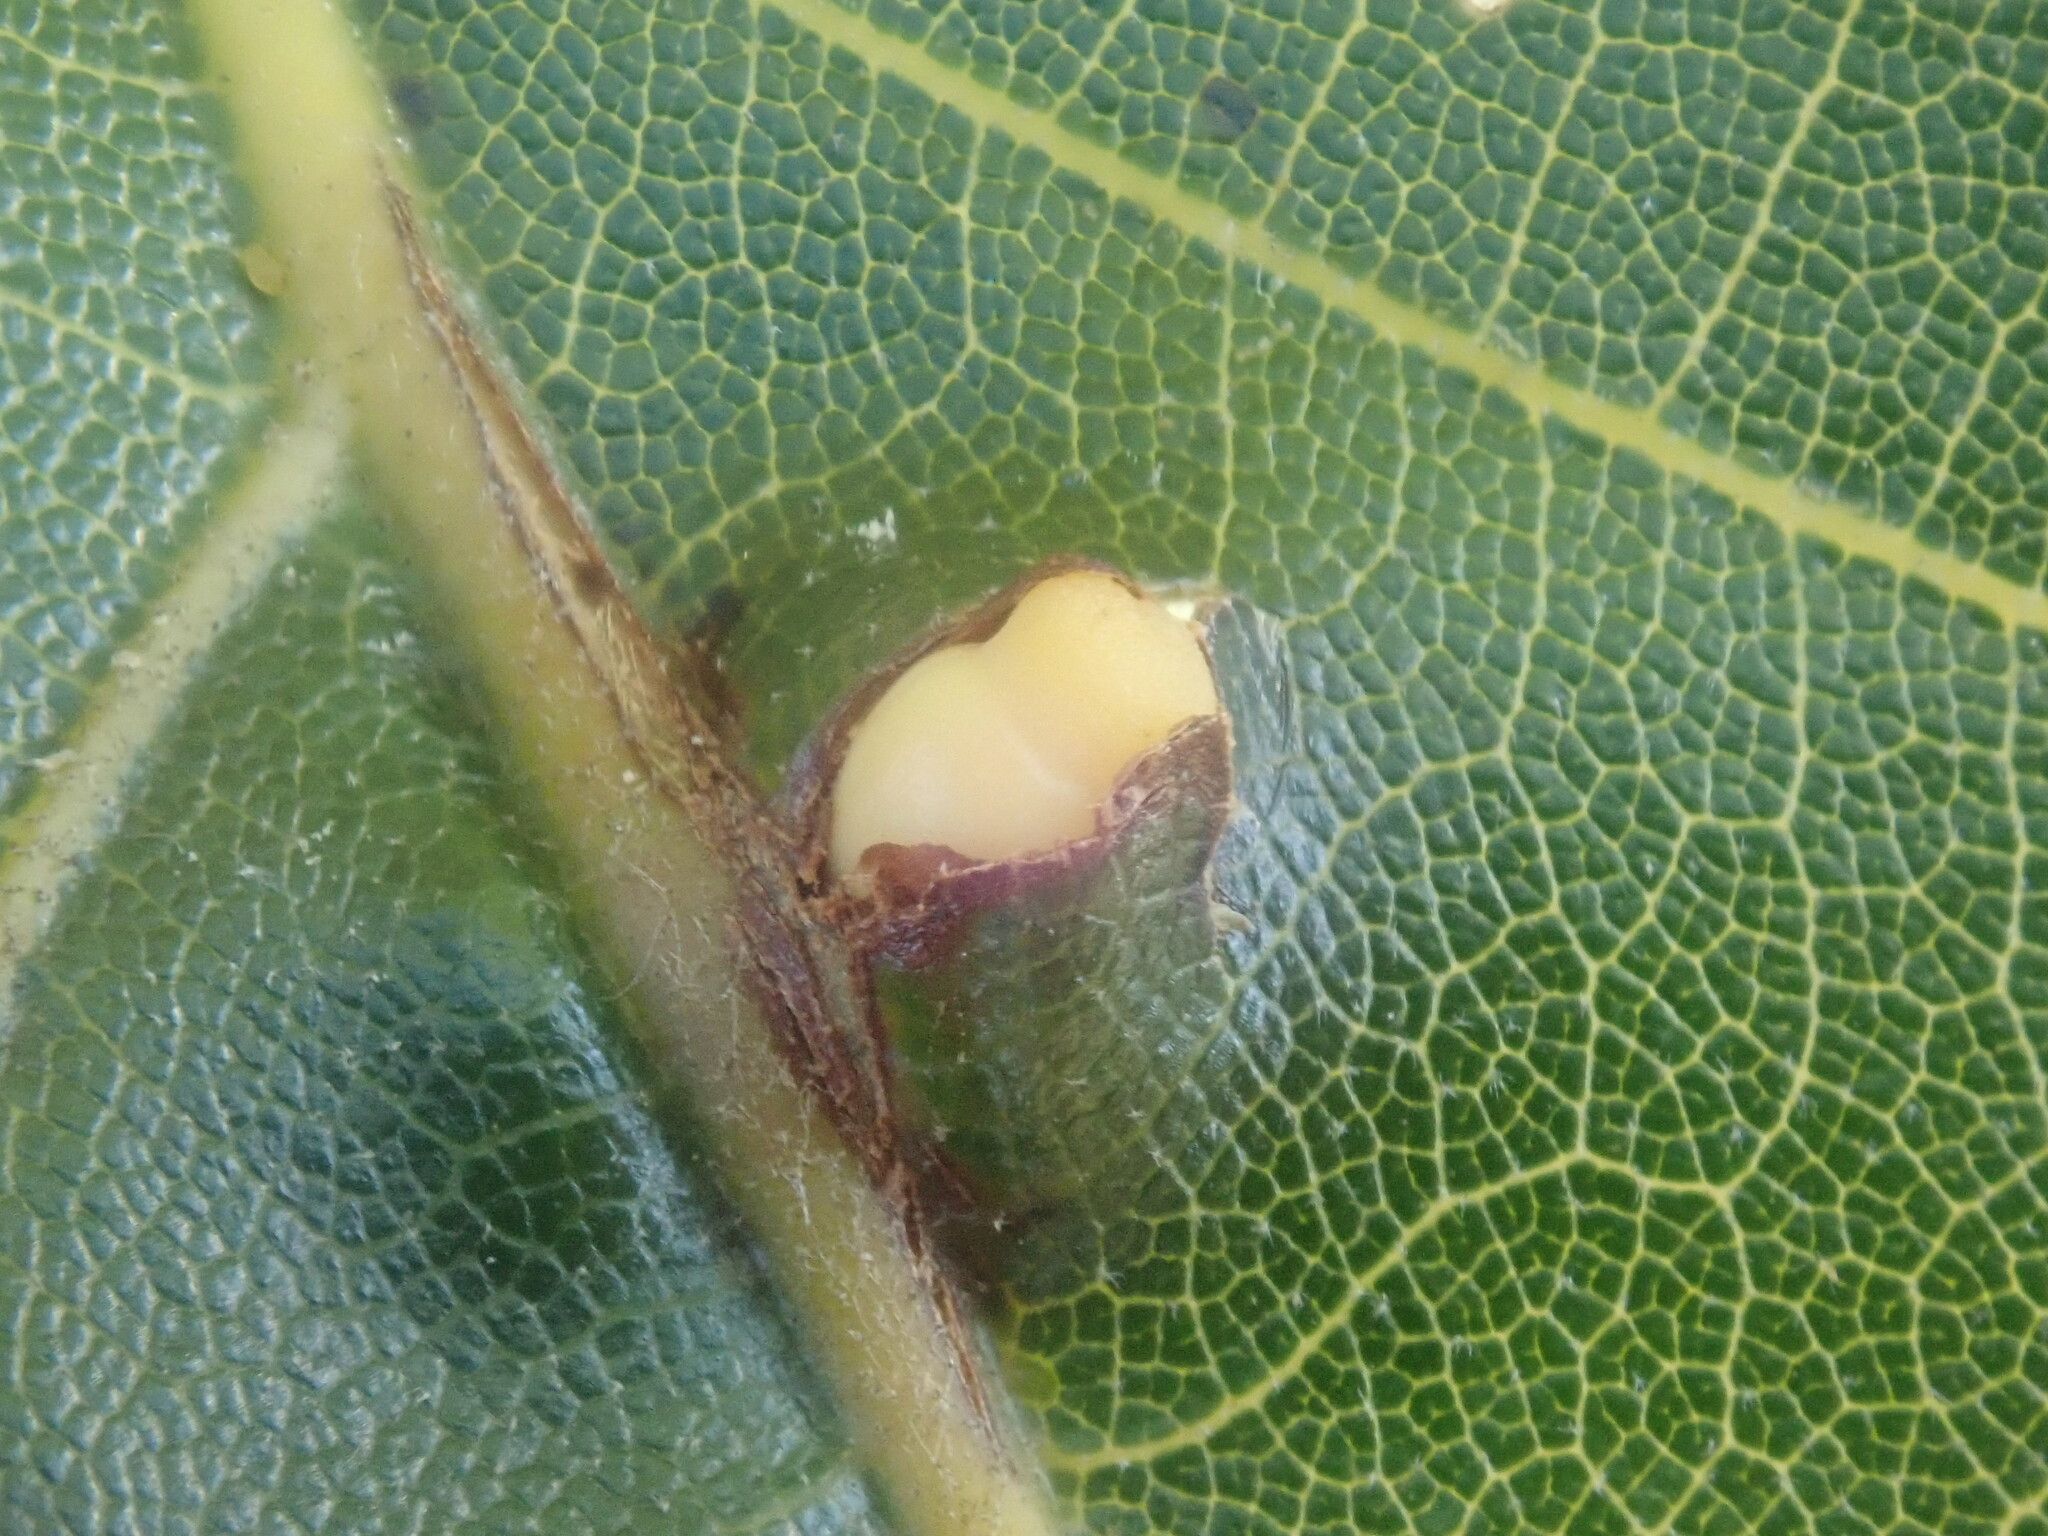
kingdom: Animalia
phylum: Arthropoda
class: Insecta
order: Hymenoptera
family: Cynipidae
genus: Kokkocynips
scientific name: Kokkocynips decidua
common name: Oak wheat gall
